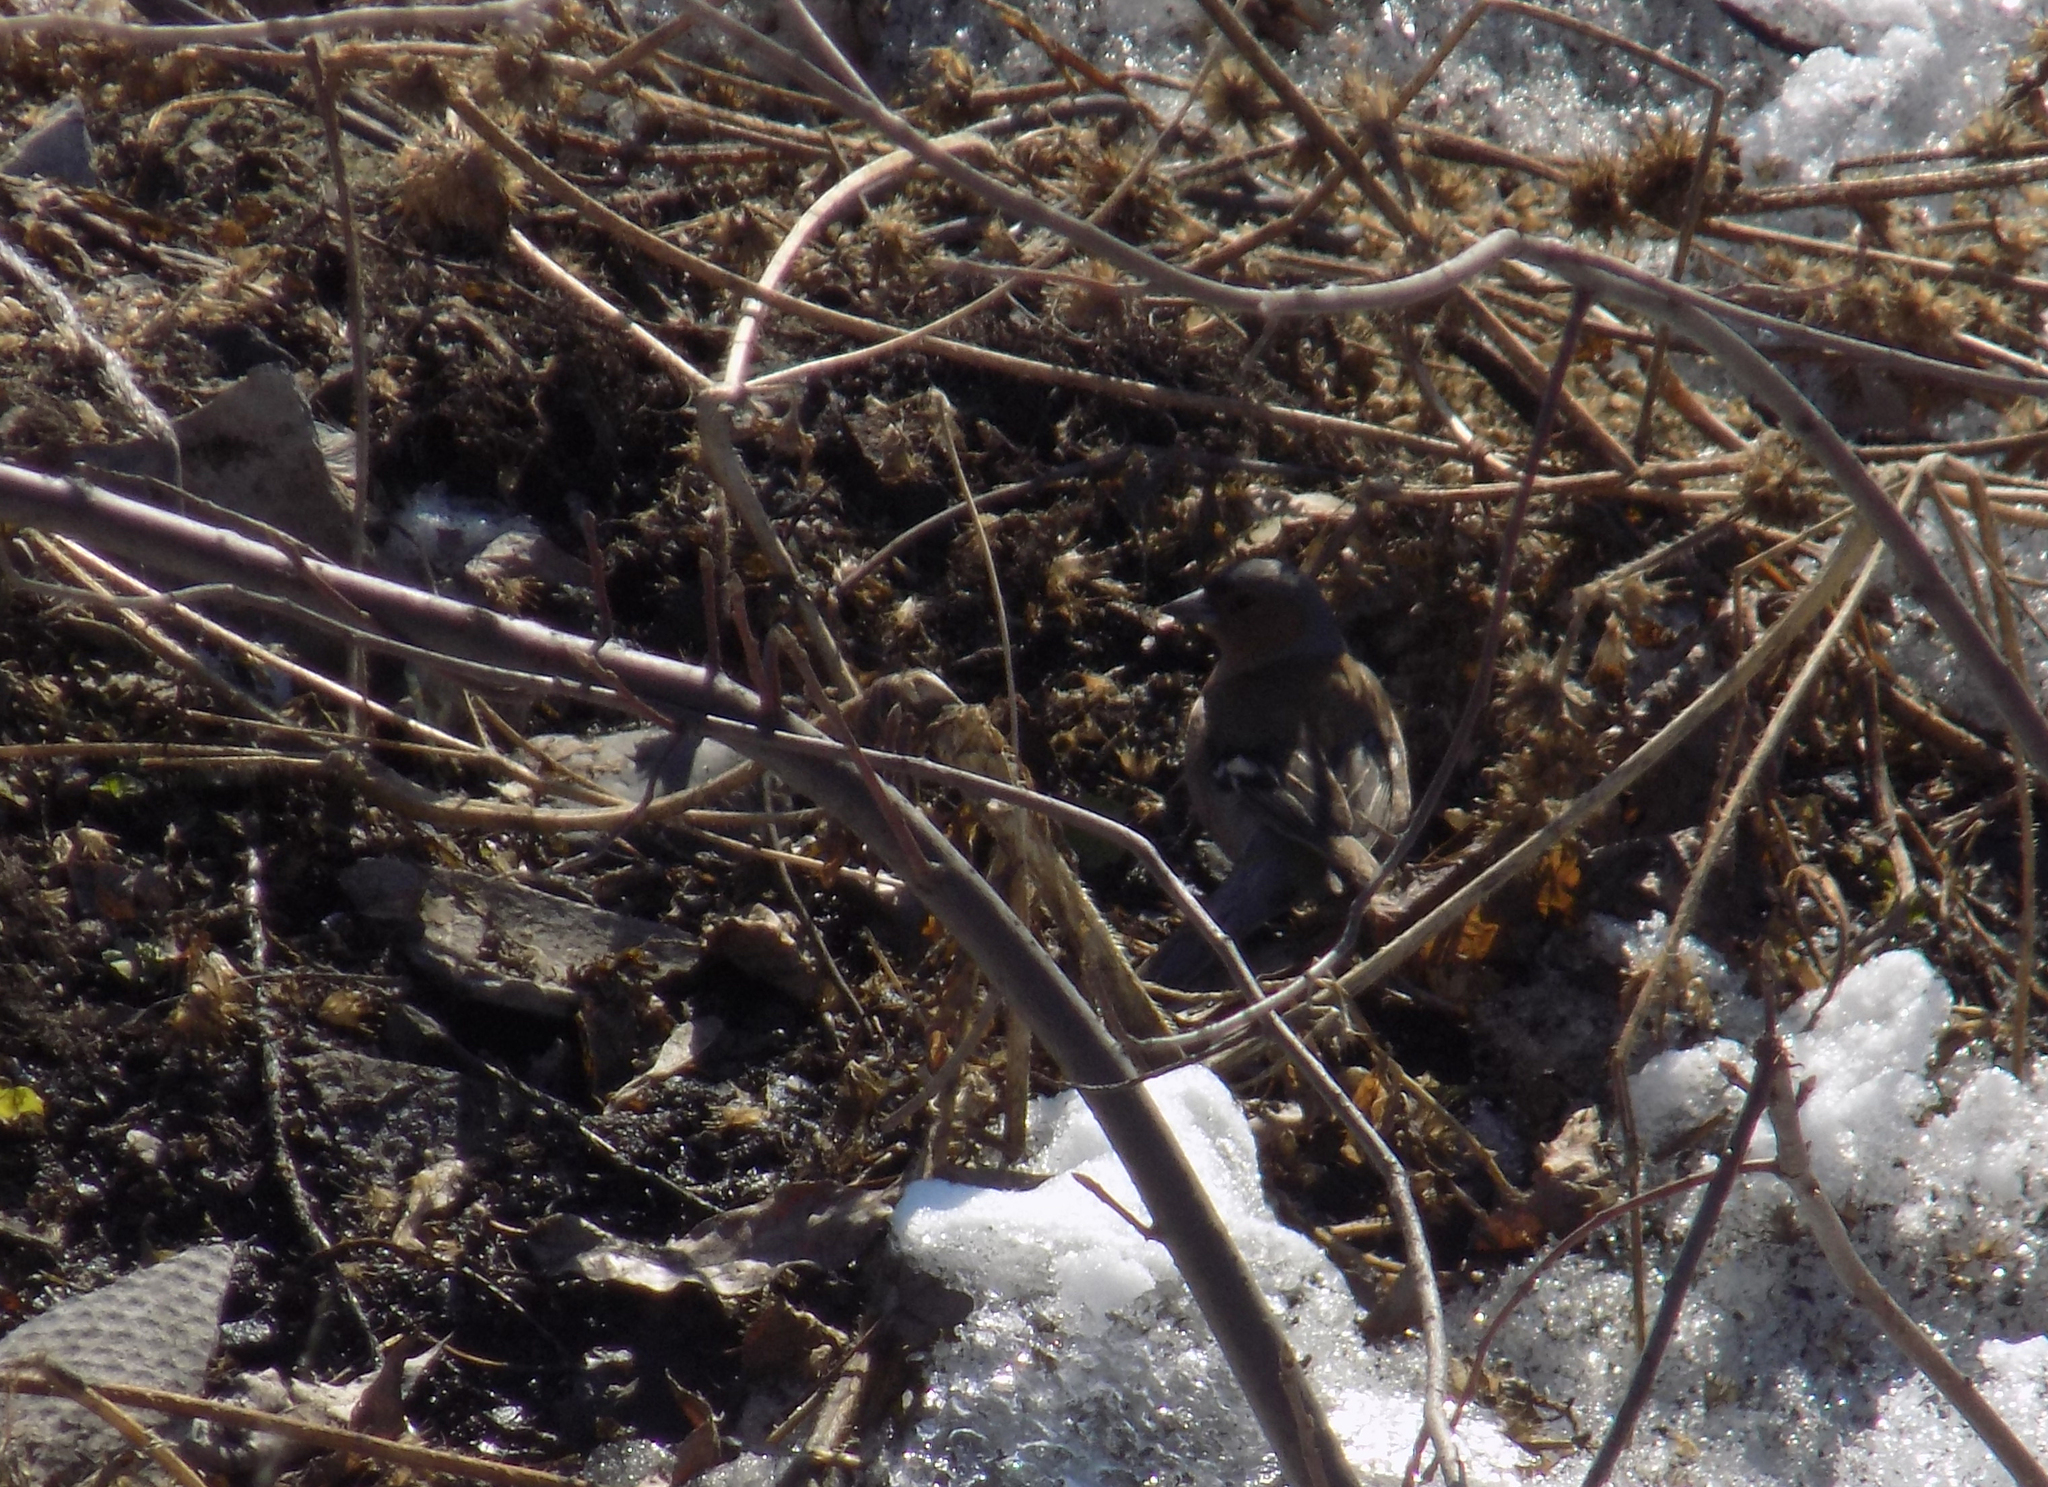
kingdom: Animalia
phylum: Chordata
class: Aves
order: Passeriformes
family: Fringillidae
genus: Fringilla
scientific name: Fringilla coelebs
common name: Common chaffinch
